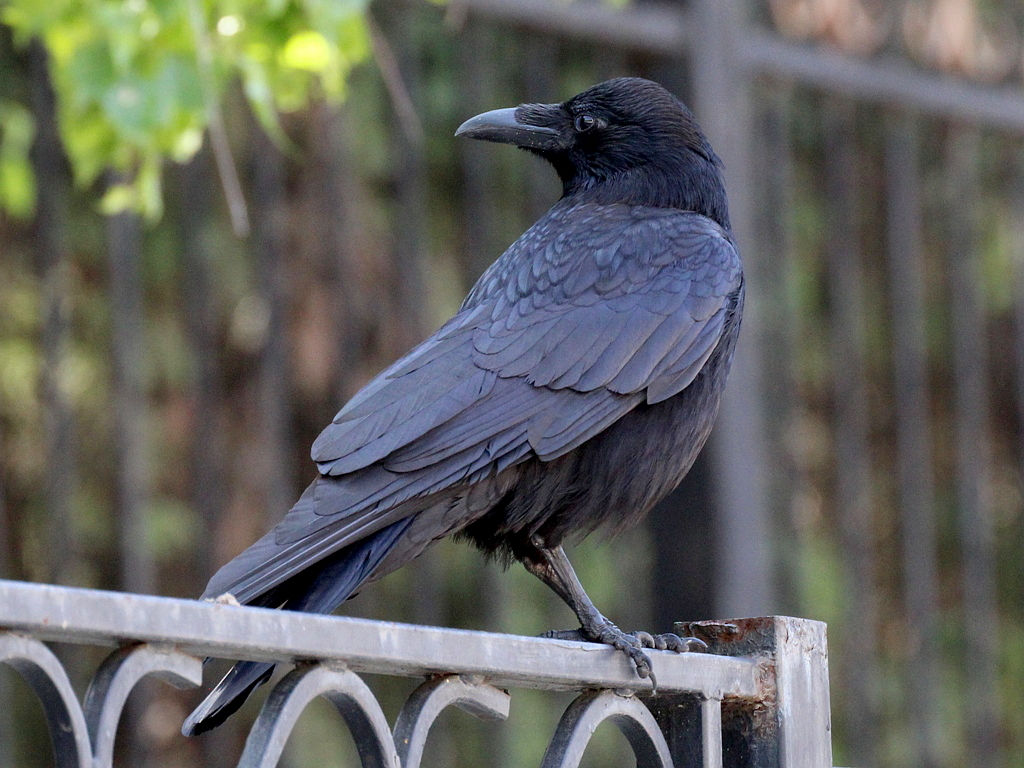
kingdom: Animalia
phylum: Chordata
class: Aves
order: Passeriformes
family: Corvidae
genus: Corvus
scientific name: Corvus corone
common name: Carrion crow
